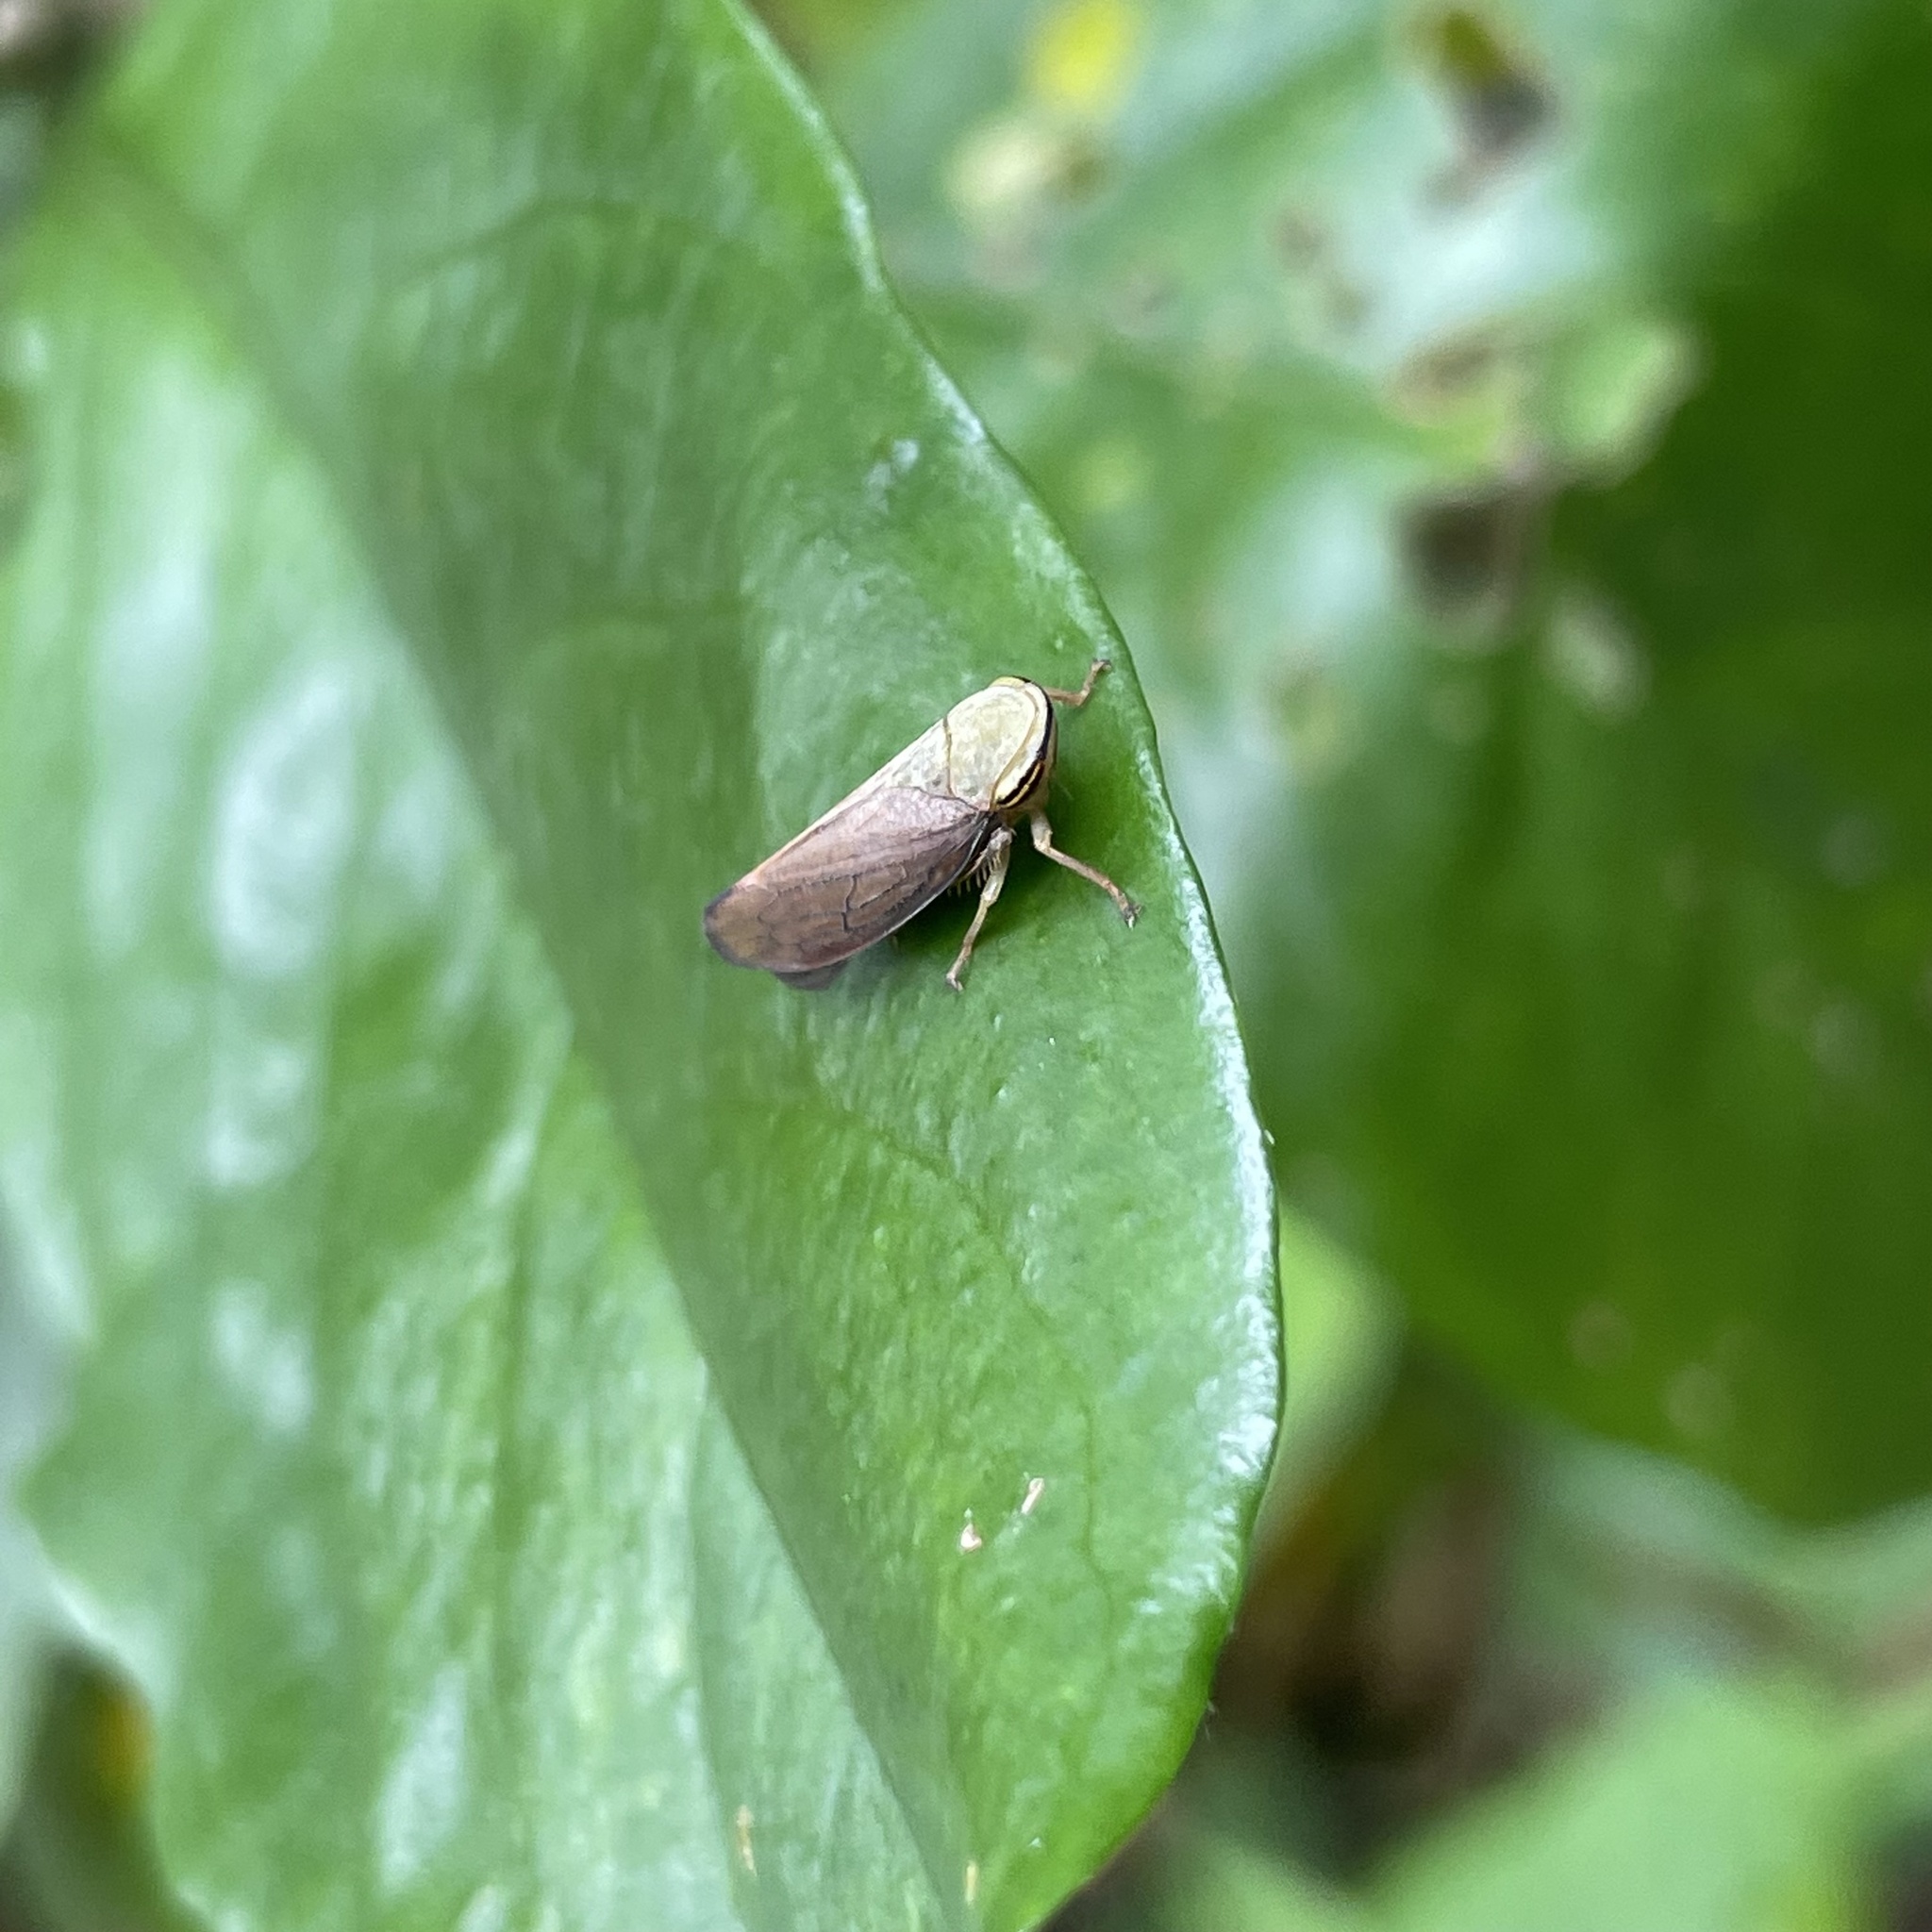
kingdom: Animalia
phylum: Arthropoda
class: Insecta
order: Hemiptera
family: Cicadellidae
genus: Tartessus
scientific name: Tartessus ferrugineus
